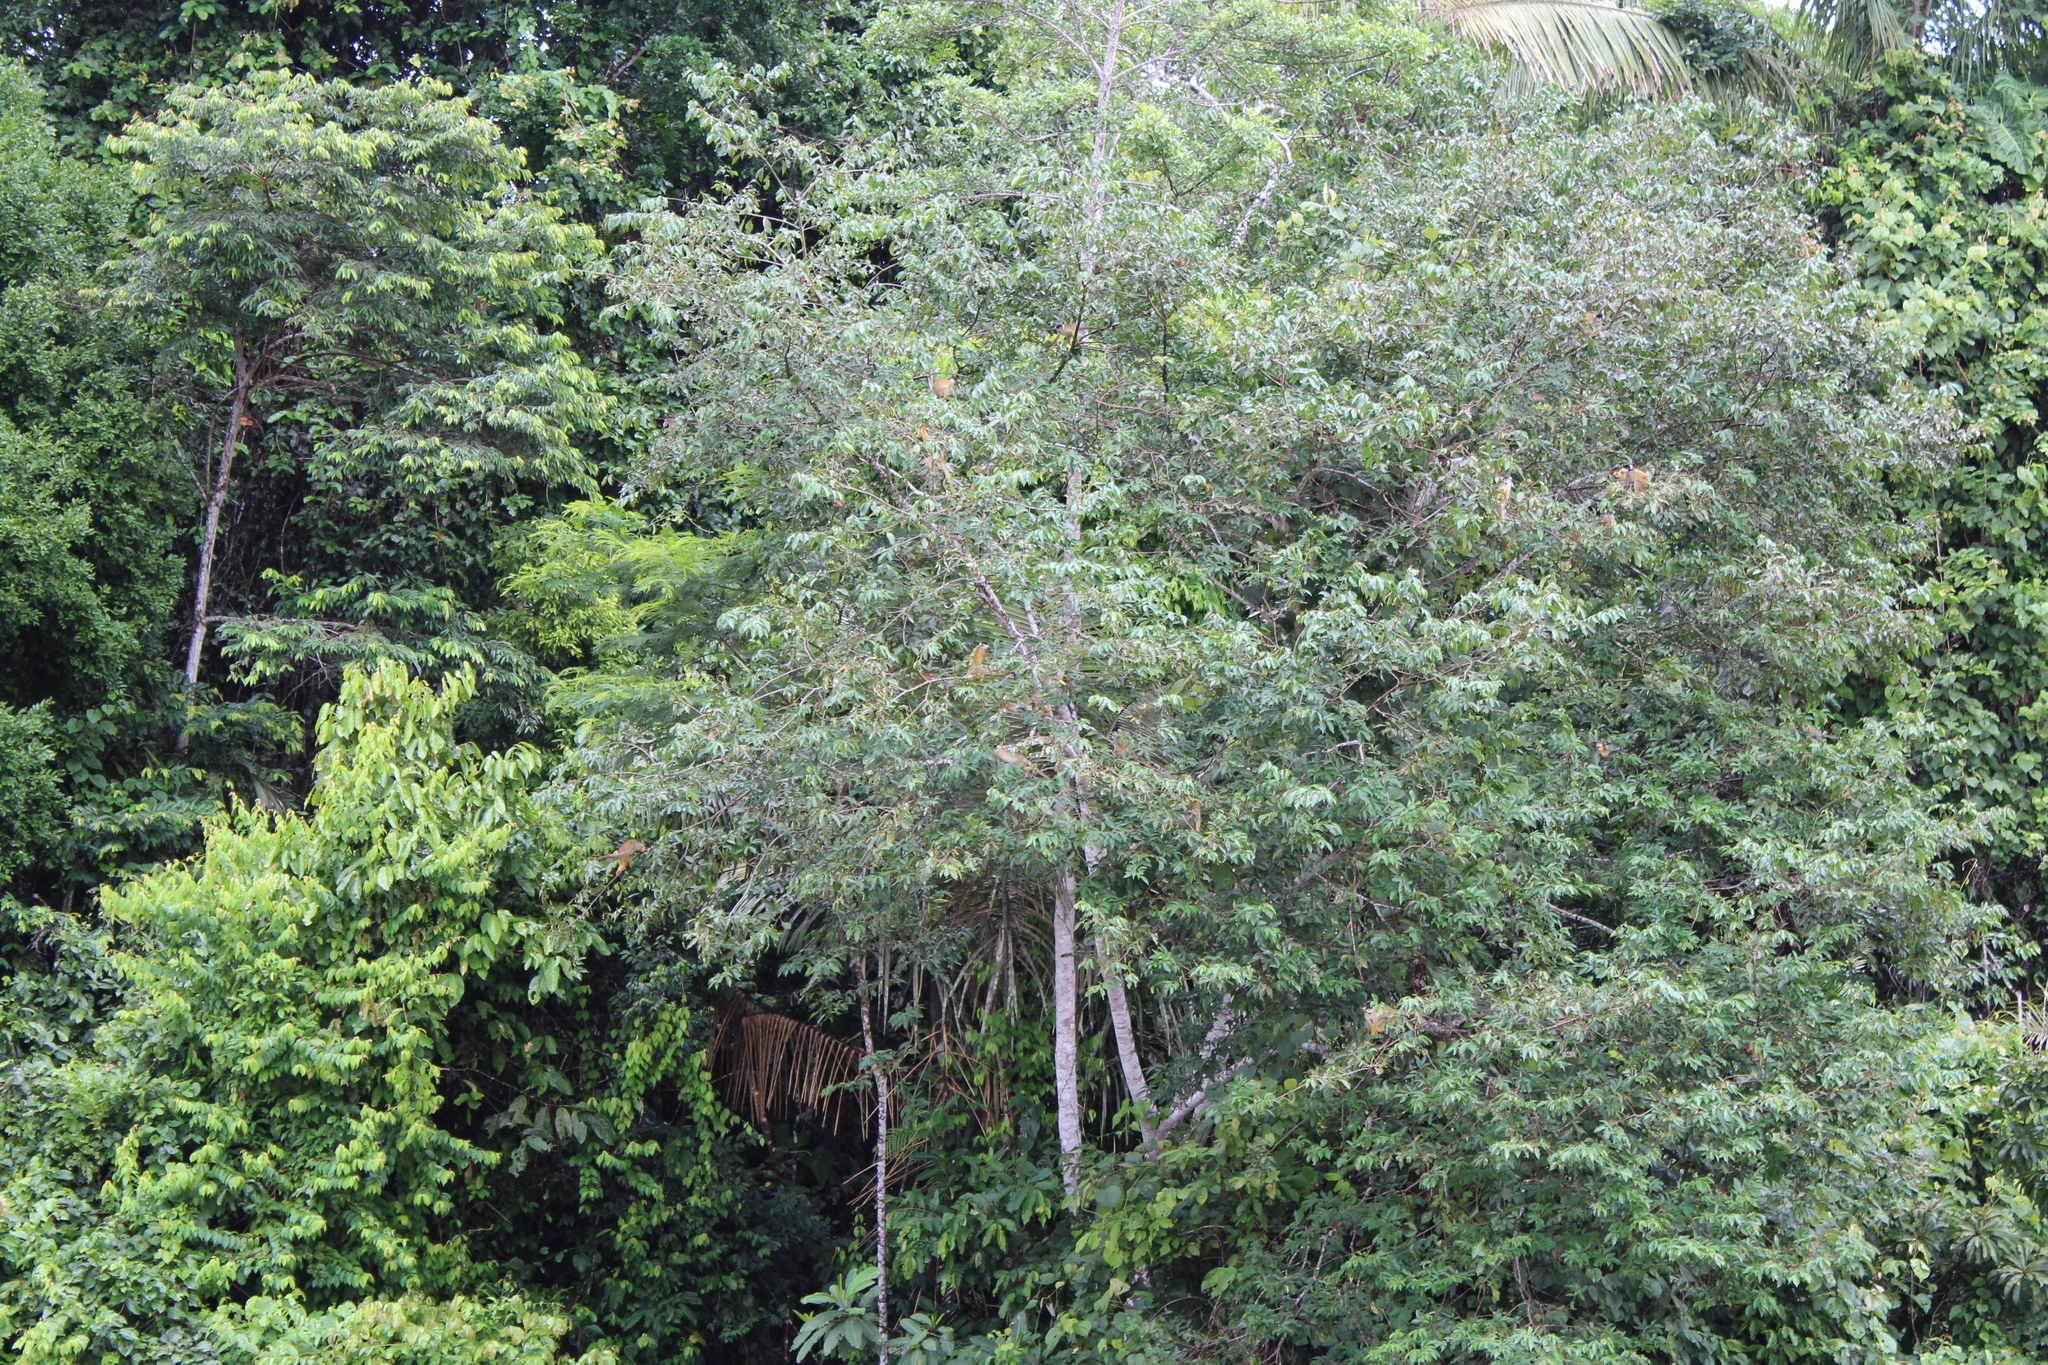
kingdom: Animalia
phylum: Chordata
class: Mammalia
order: Primates
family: Cebidae
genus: Saimiri
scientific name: Saimiri boliviensis
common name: Black-capped squirrel monkey
